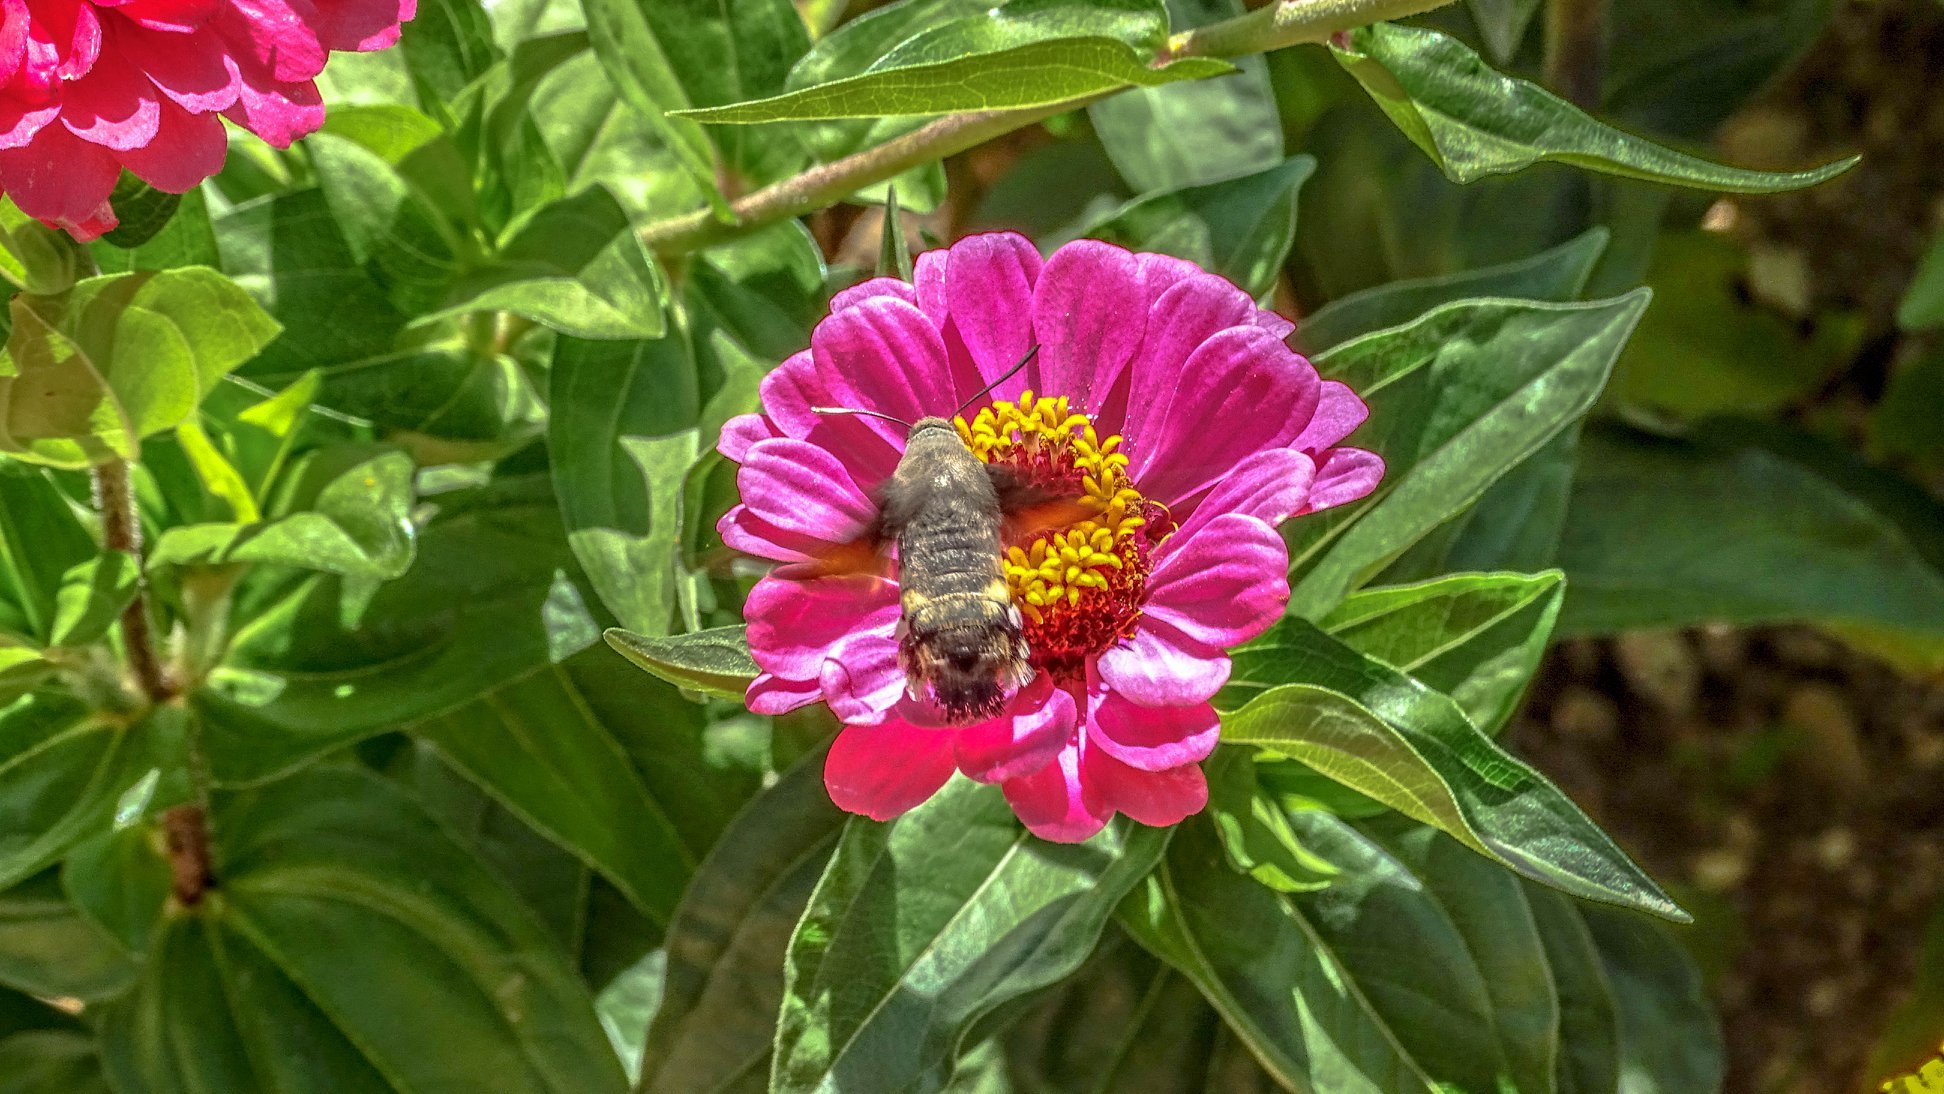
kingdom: Animalia
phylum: Arthropoda
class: Insecta
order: Lepidoptera
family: Sphingidae
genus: Macroglossum
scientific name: Macroglossum stellatarum
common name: Humming-bird hawk-moth
